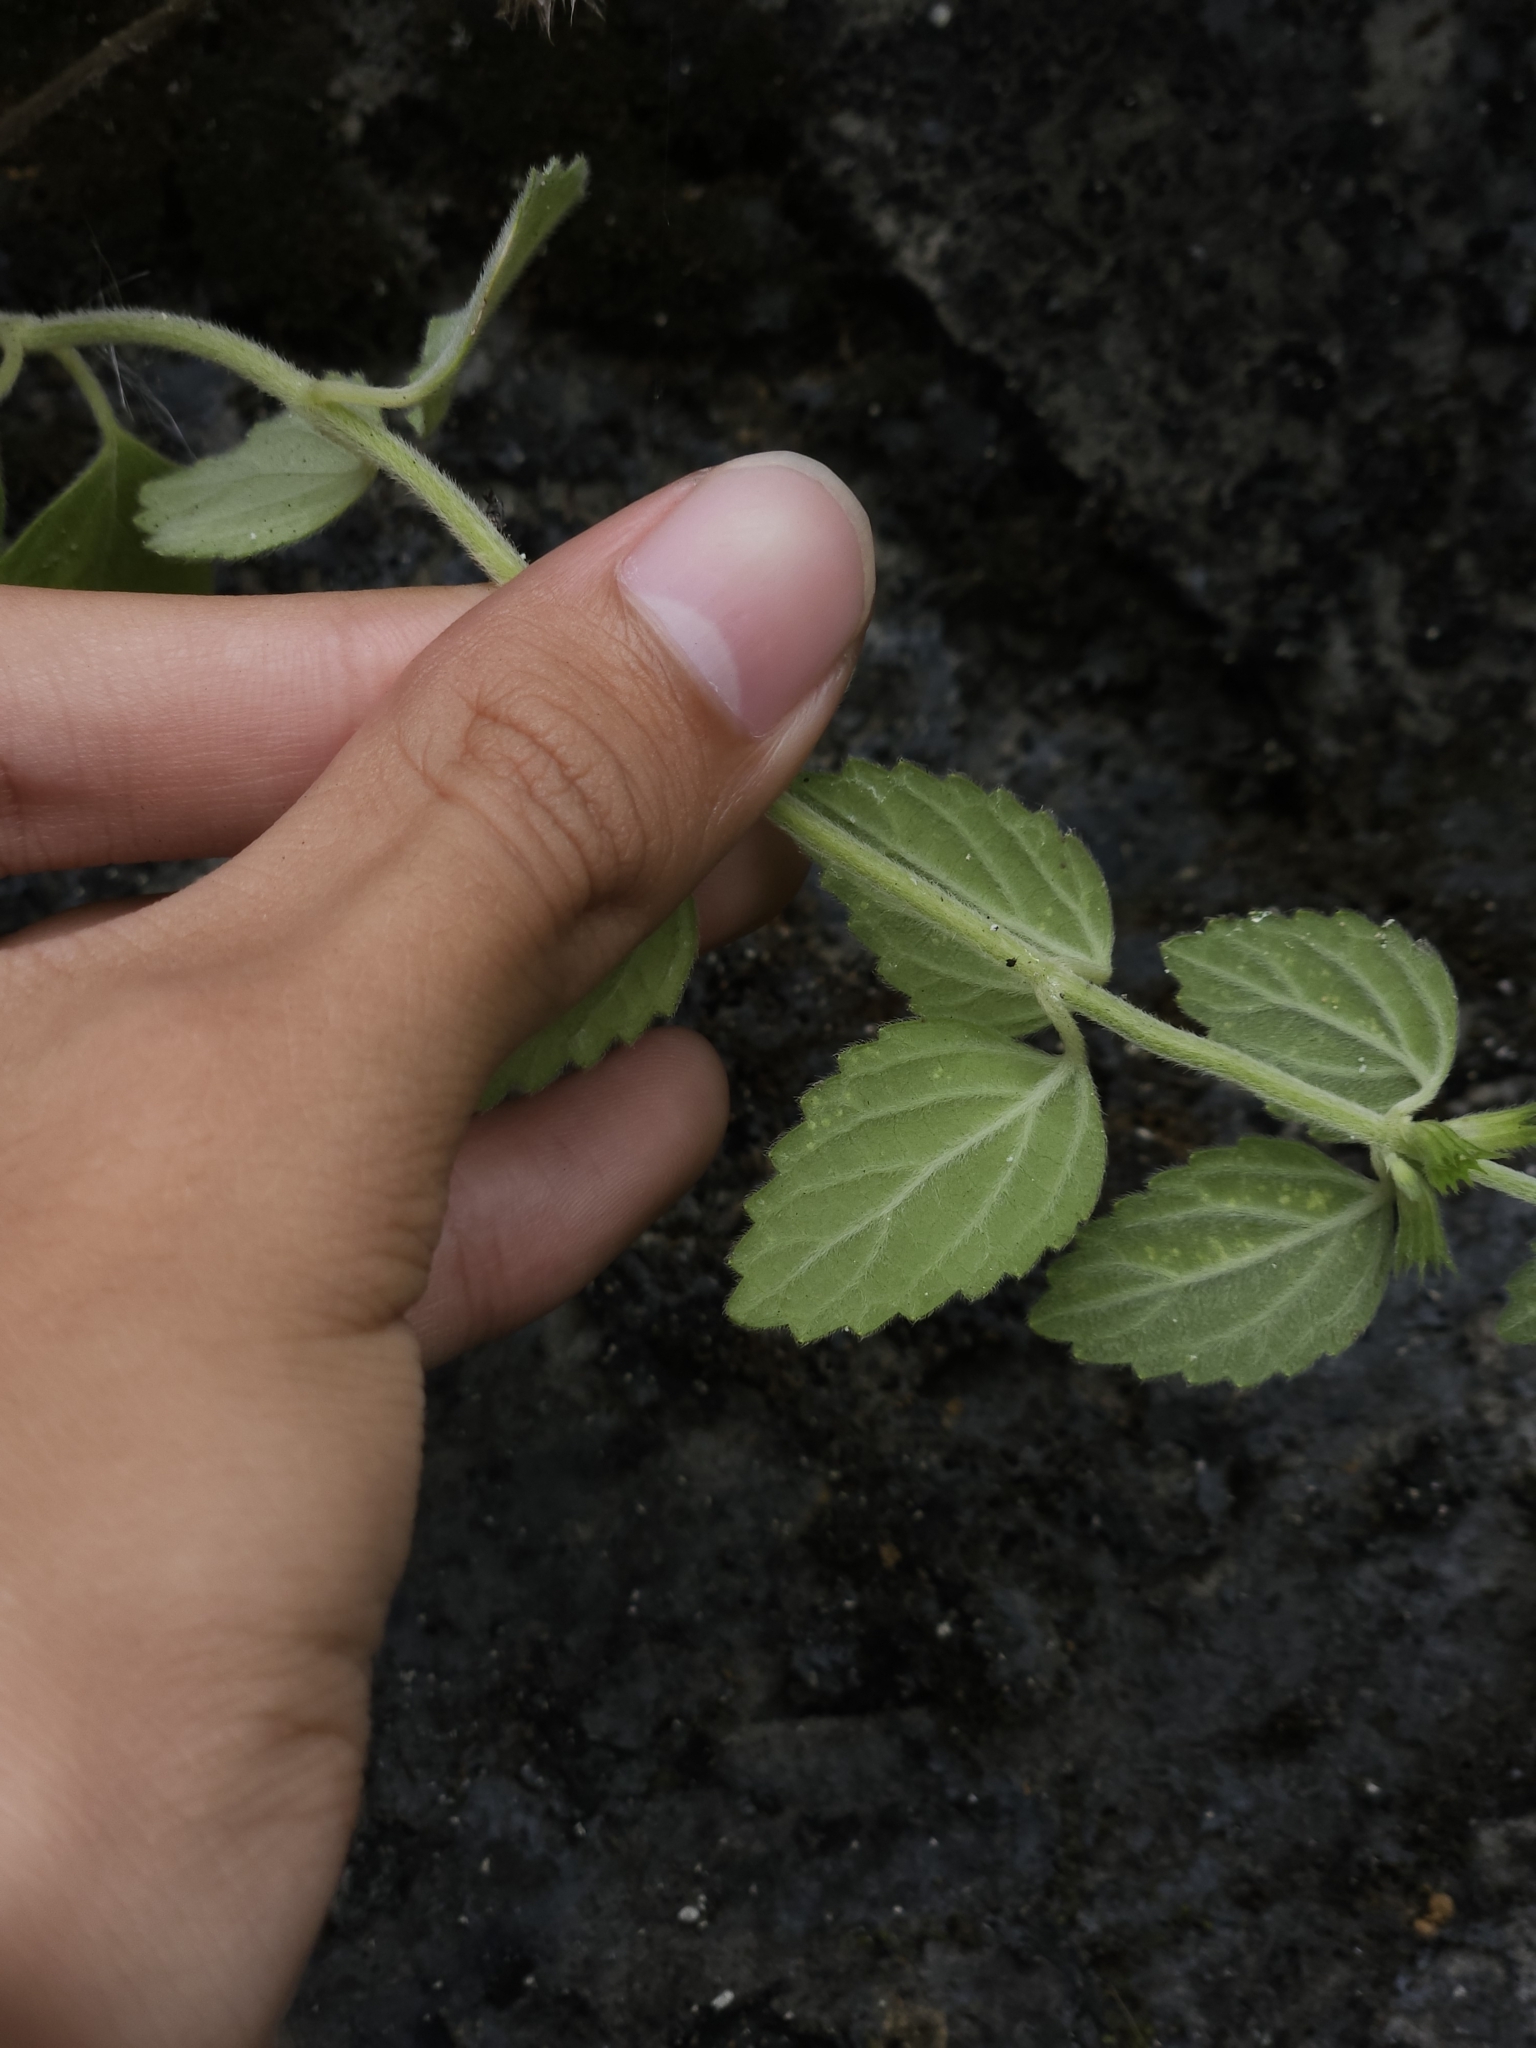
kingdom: Plantae
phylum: Tracheophyta
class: Magnoliopsida
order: Lamiales
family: Lamiaceae
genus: Leucas
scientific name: Leucas chinensis
